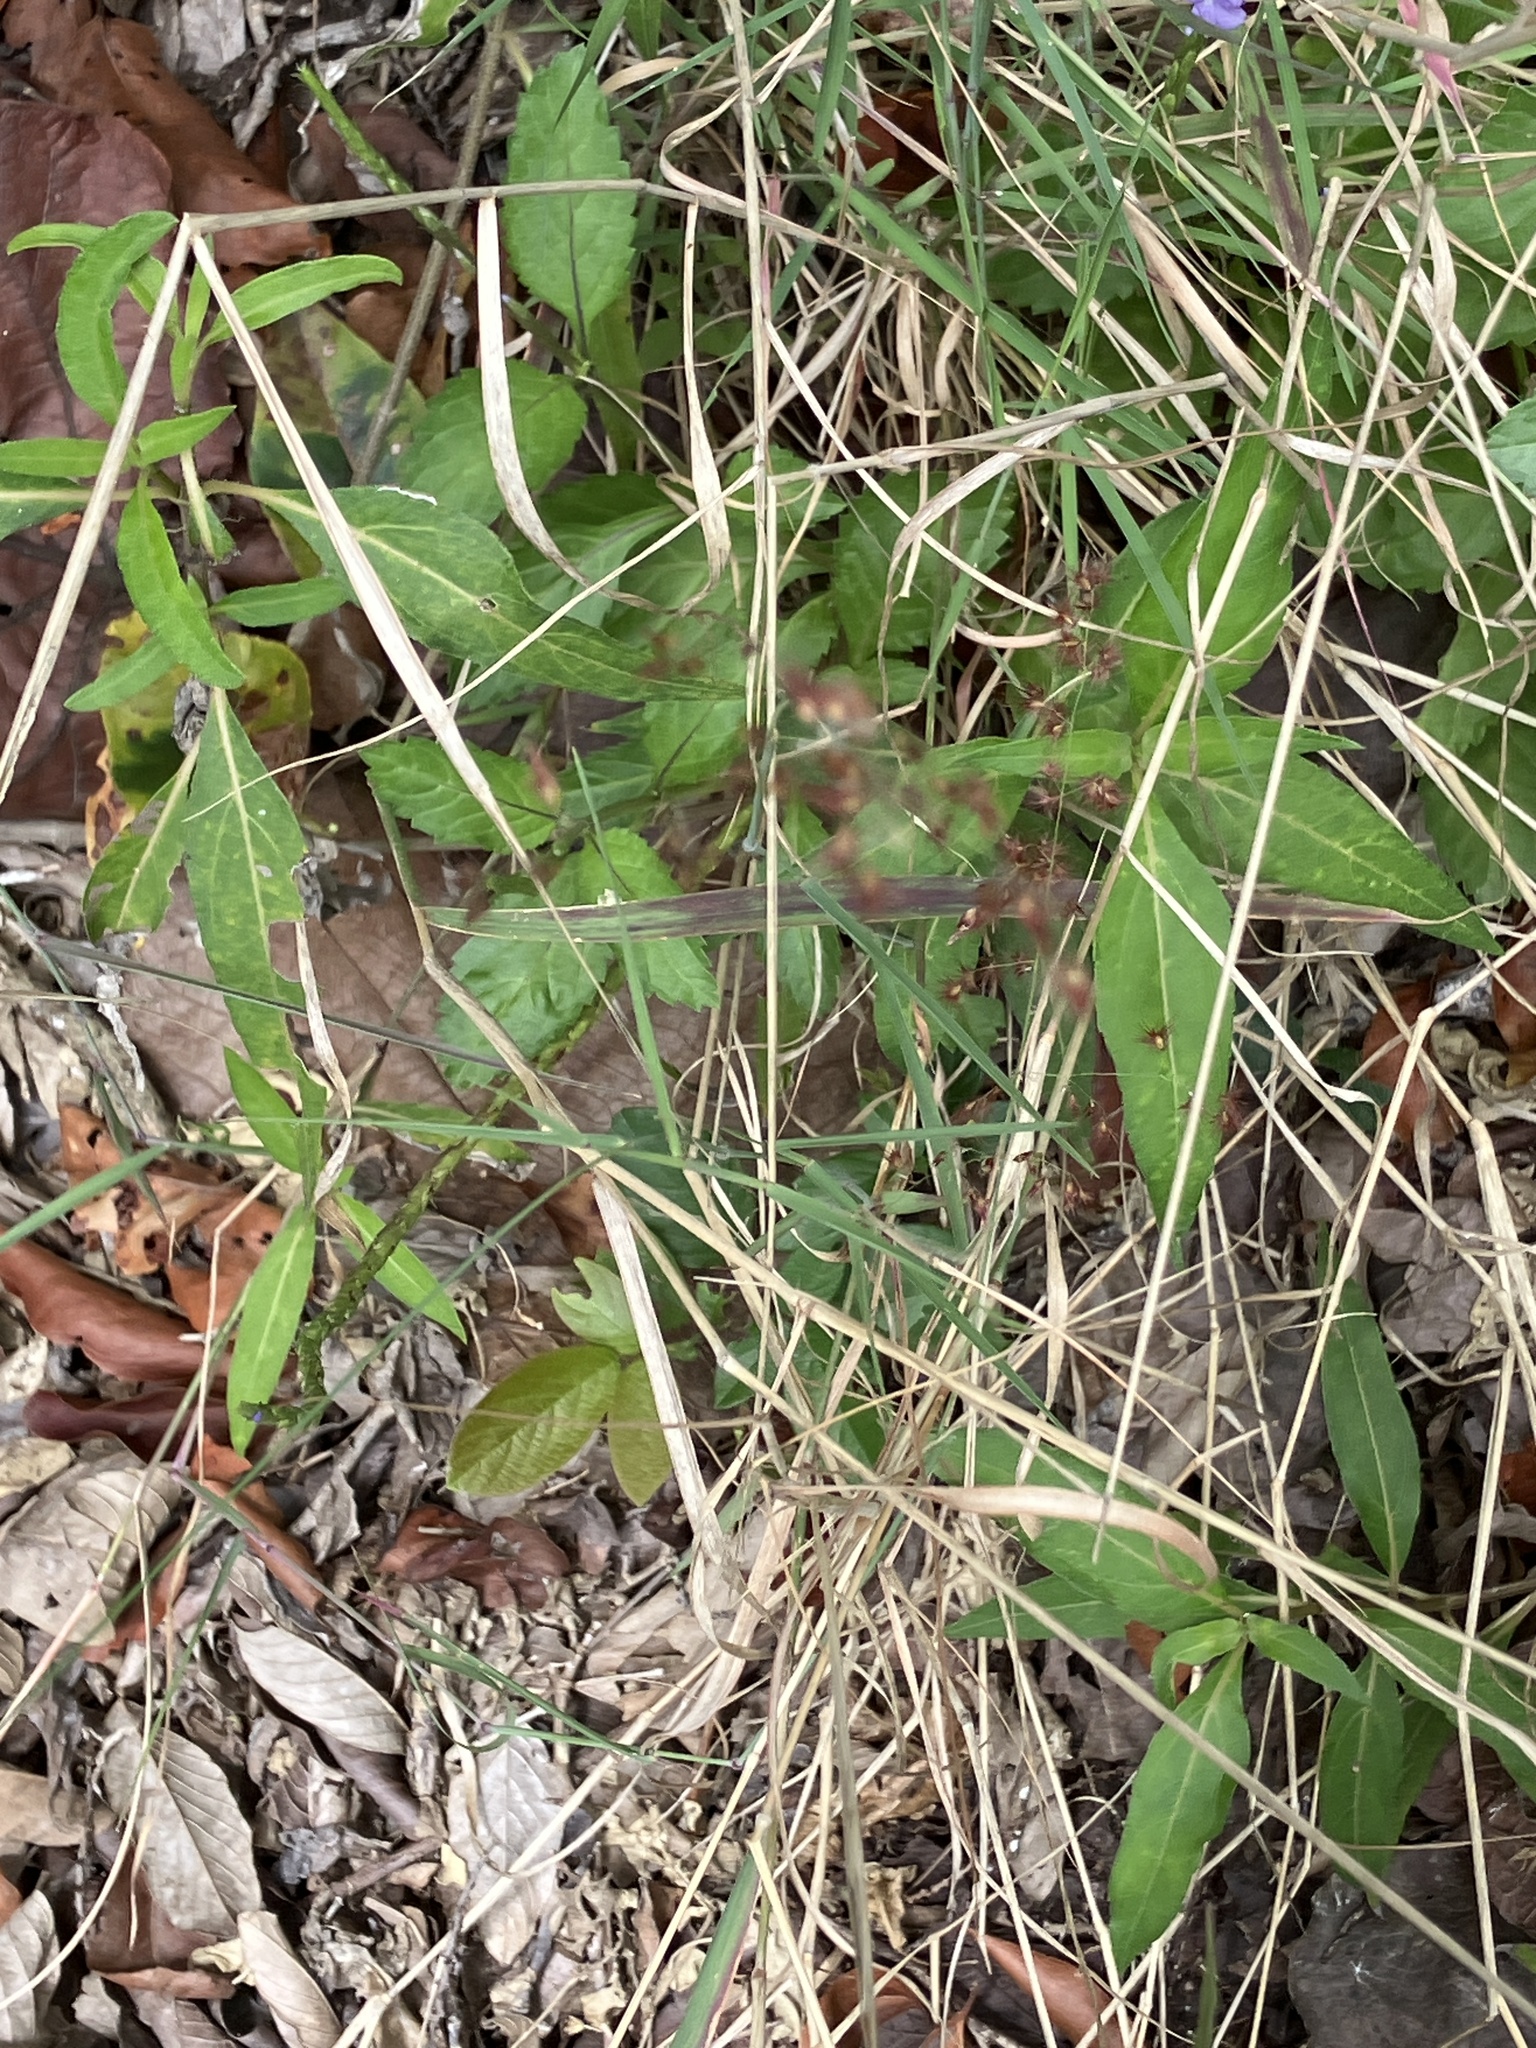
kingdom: Plantae
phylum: Tracheophyta
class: Liliopsida
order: Poales
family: Poaceae
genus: Melinis
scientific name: Melinis repens
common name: Rose natal grass
